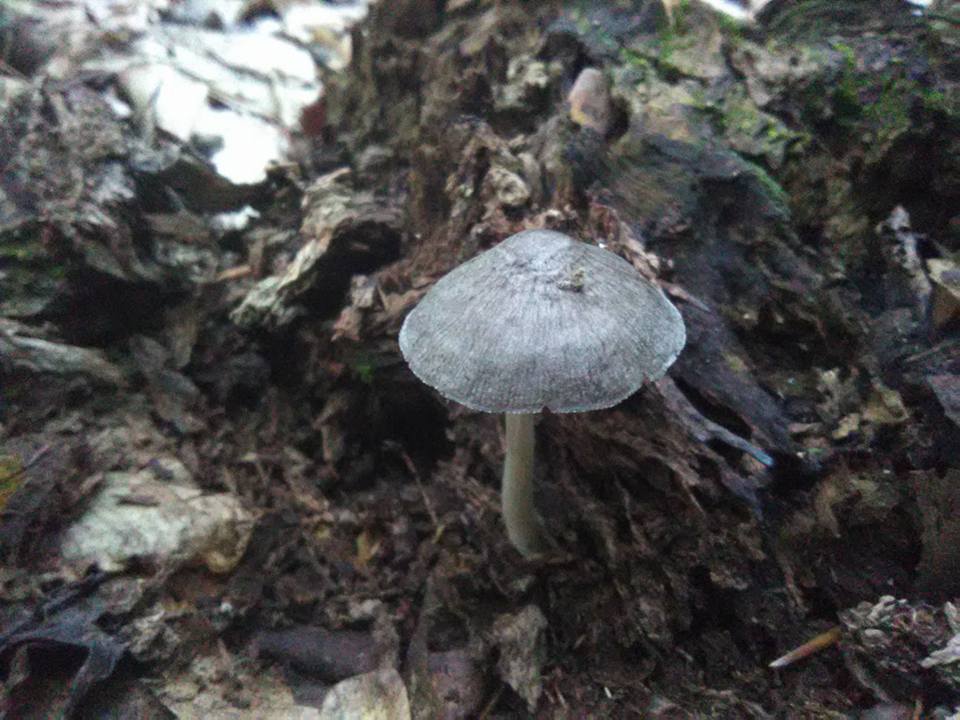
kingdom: Fungi
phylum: Basidiomycota
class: Agaricomycetes
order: Agaricales
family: Pluteaceae
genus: Pluteus
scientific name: Pluteus saupei
